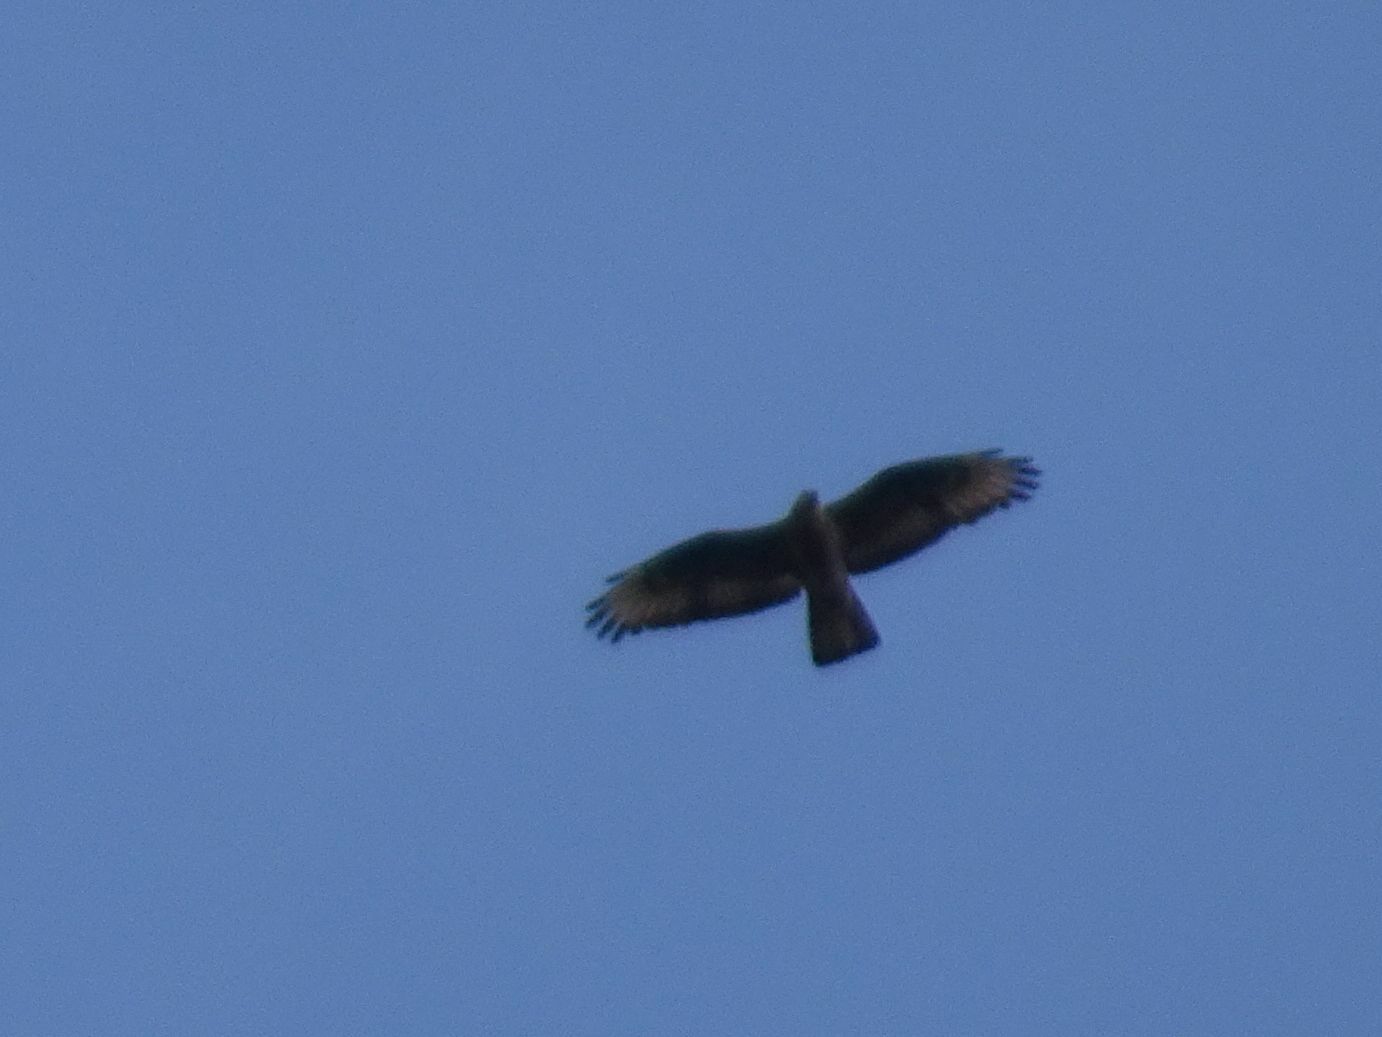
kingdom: Animalia
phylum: Chordata
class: Aves
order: Accipitriformes
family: Accipitridae
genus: Pernis
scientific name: Pernis apivorus
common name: European honey buzzard
